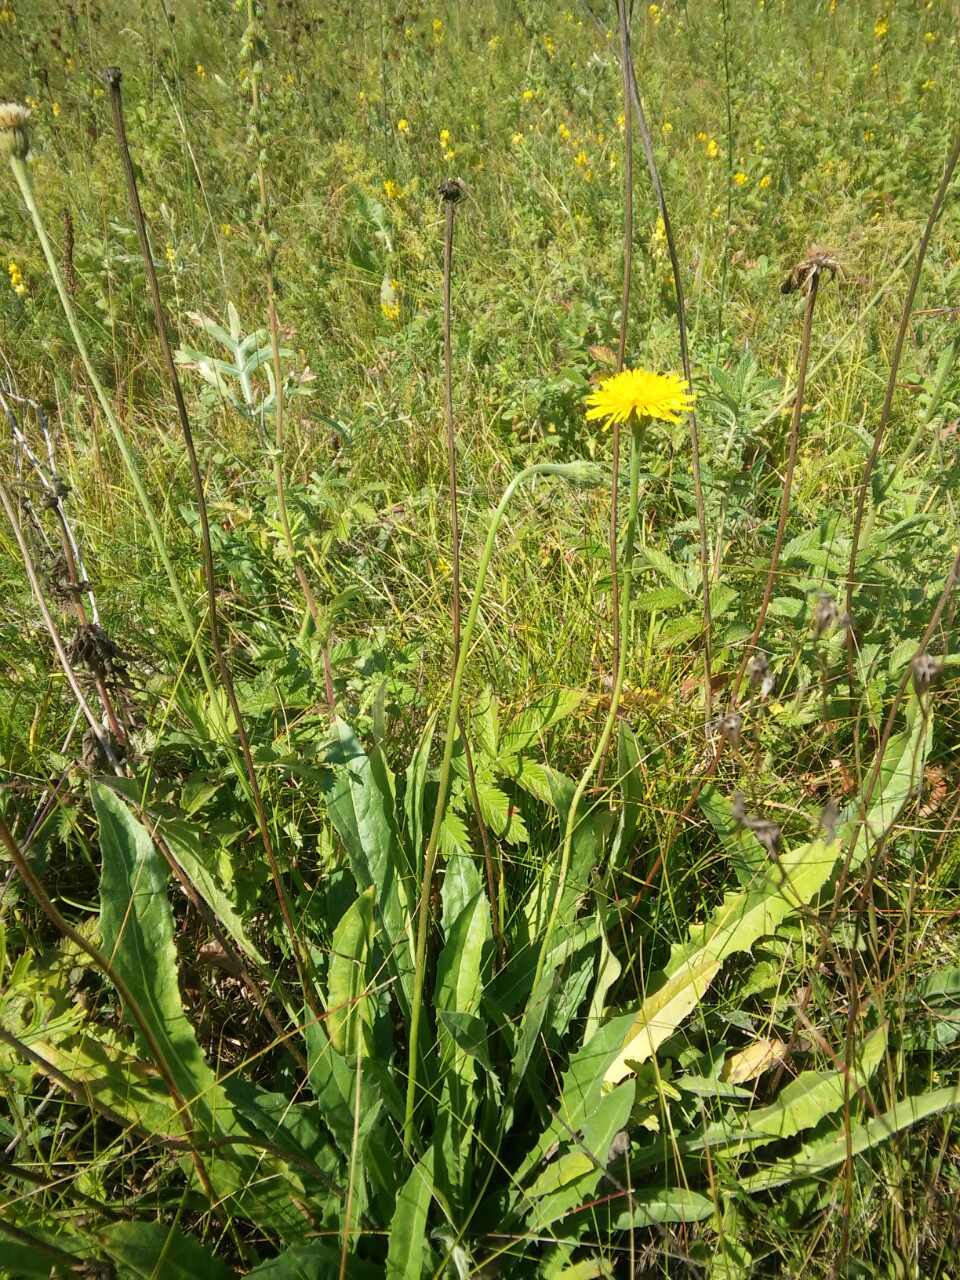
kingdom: Plantae
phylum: Tracheophyta
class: Magnoliopsida
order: Asterales
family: Asteraceae
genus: Leontodon
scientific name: Leontodon hispidus
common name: Rough hawkbit
